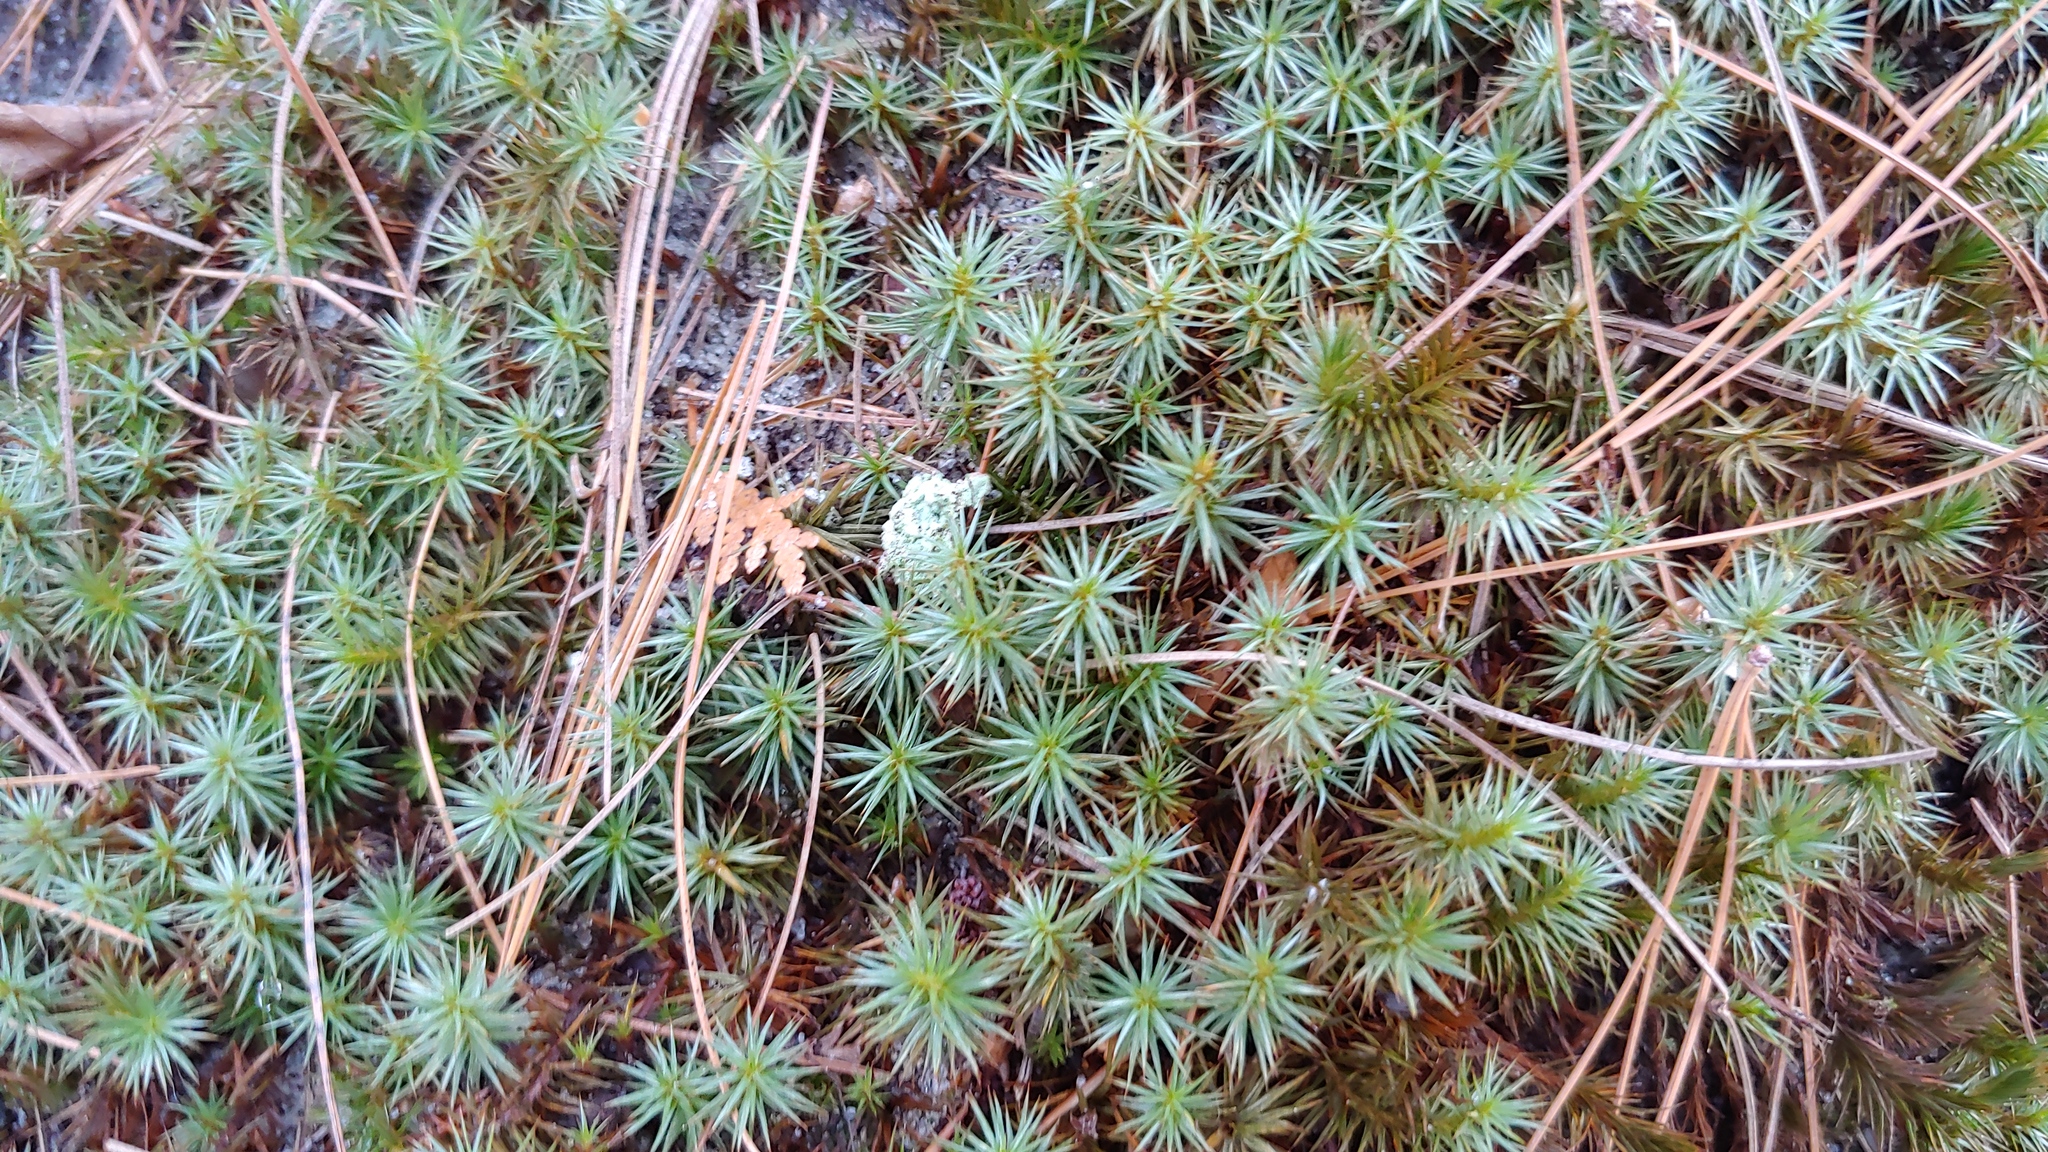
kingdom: Plantae
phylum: Bryophyta
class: Polytrichopsida
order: Polytrichales
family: Polytrichaceae
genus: Polytrichum
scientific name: Polytrichum juniperinum
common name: Juniper haircap moss
